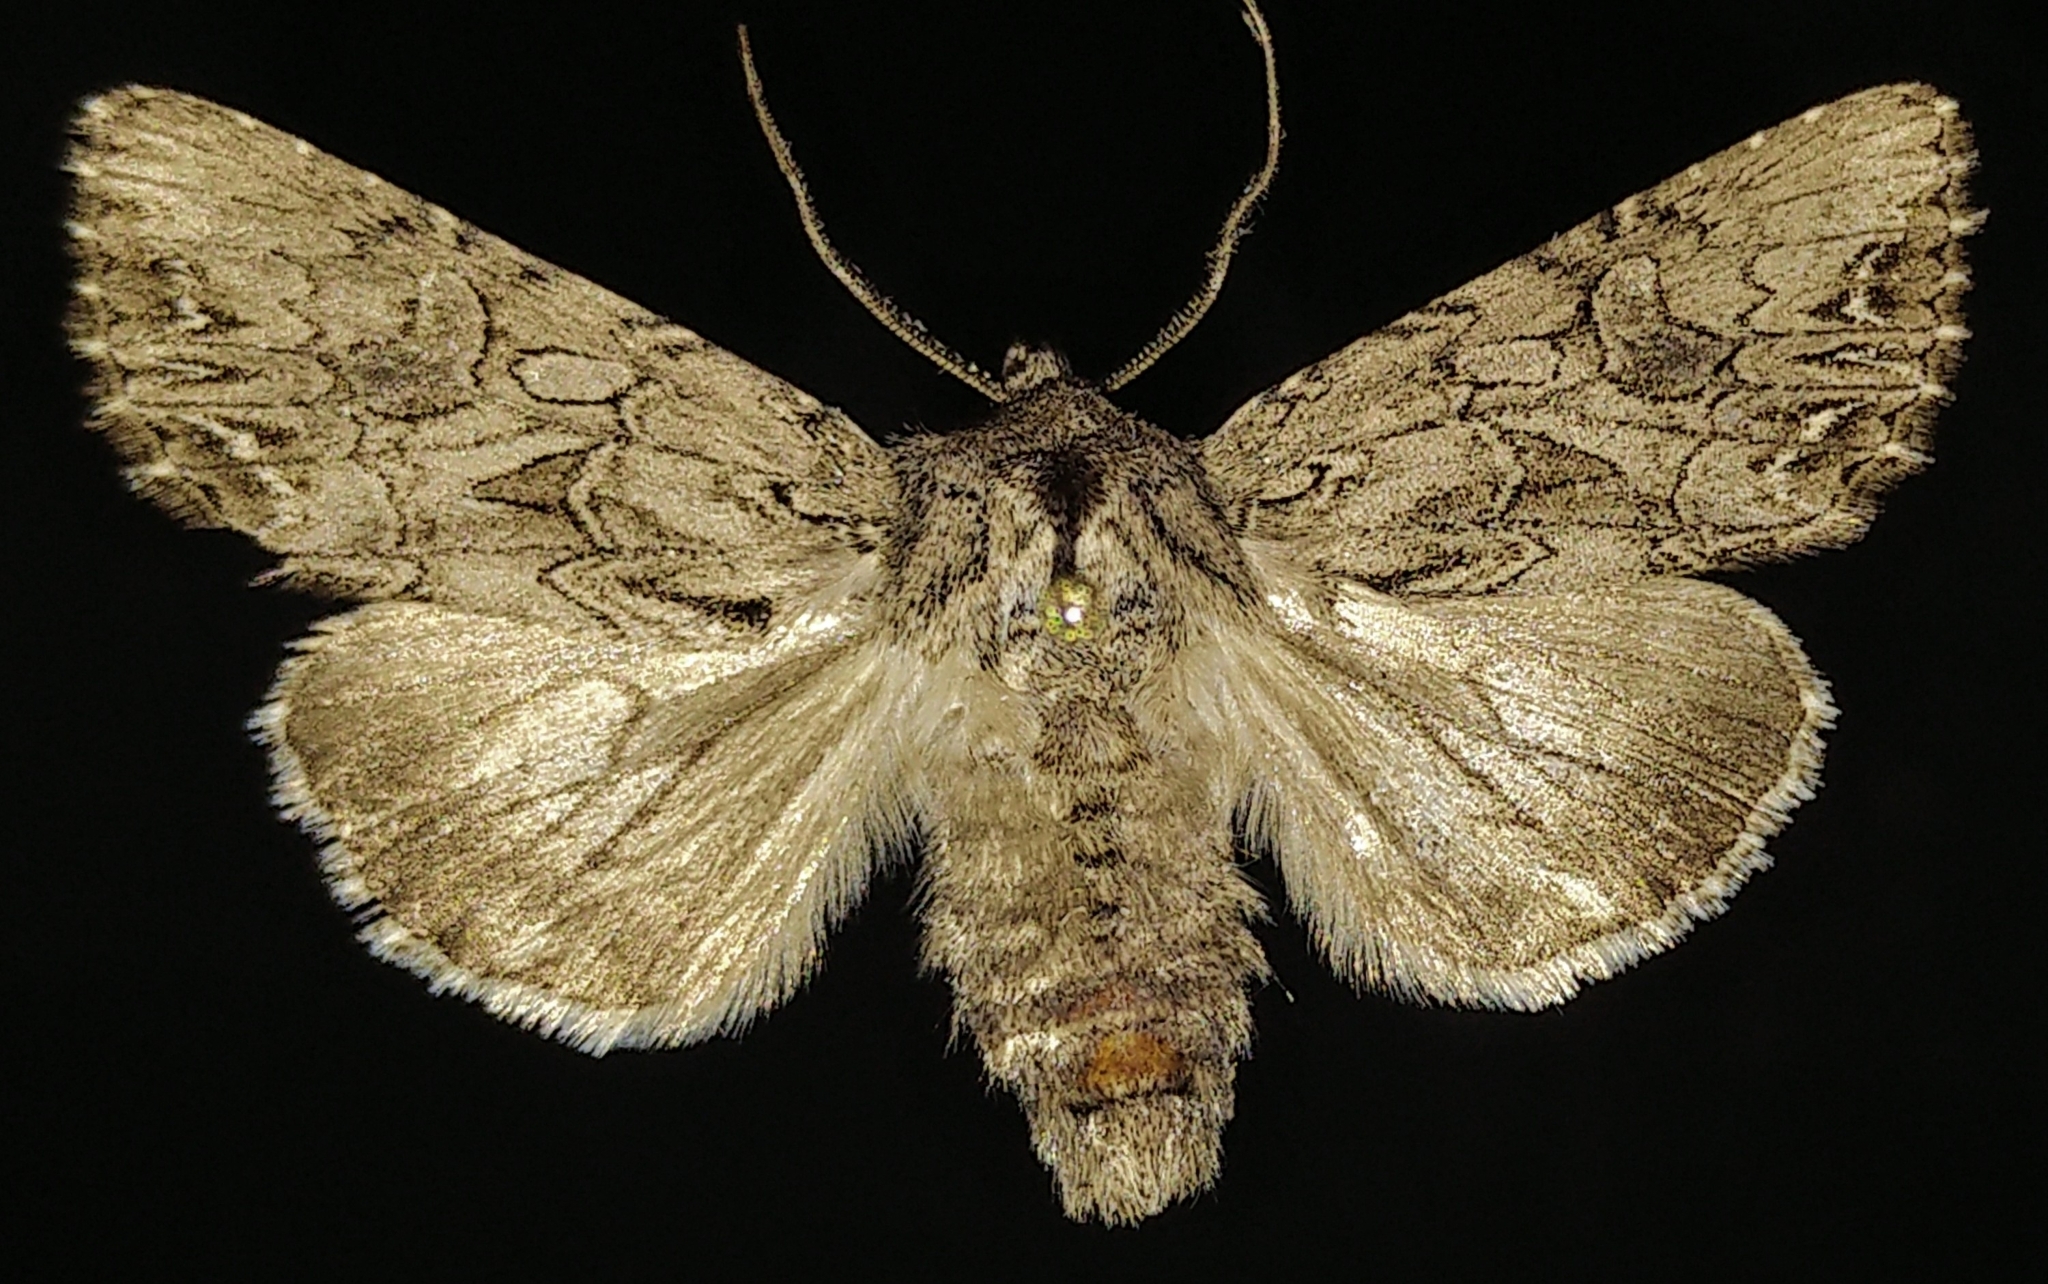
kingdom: Animalia
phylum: Arthropoda
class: Insecta
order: Lepidoptera
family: Noctuidae
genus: Anarta
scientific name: Anarta crotchii
